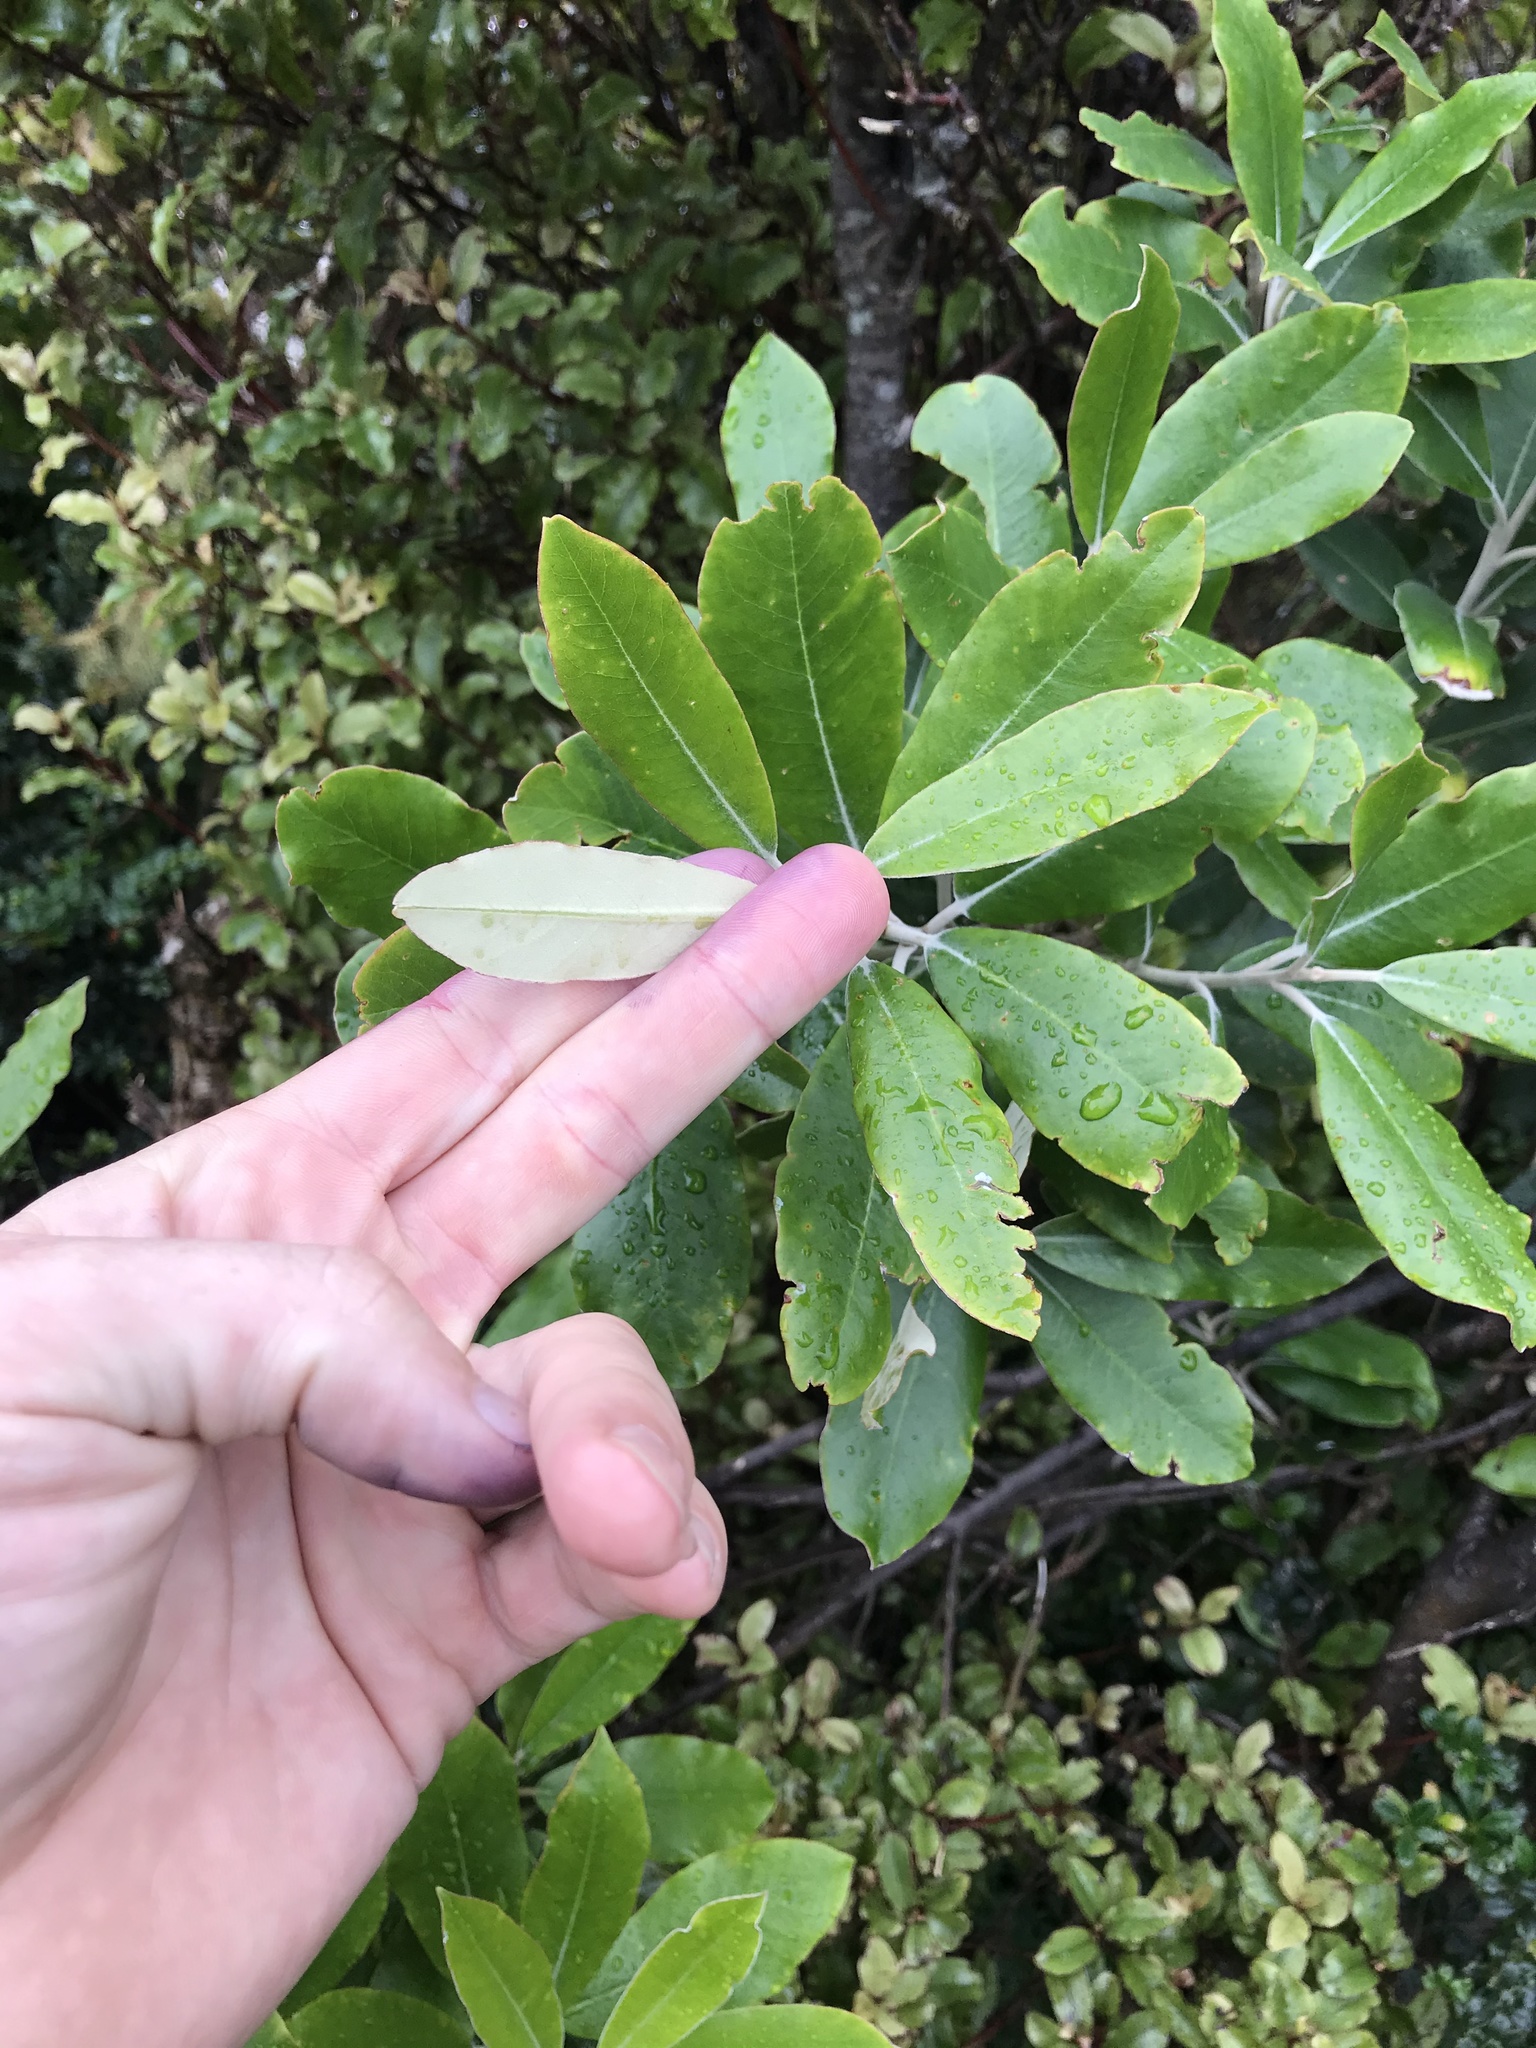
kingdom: Plantae
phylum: Tracheophyta
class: Magnoliopsida
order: Apiales
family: Pittosporaceae
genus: Pittosporum
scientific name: Pittosporum ralphii
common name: Ralph's desertwillow
